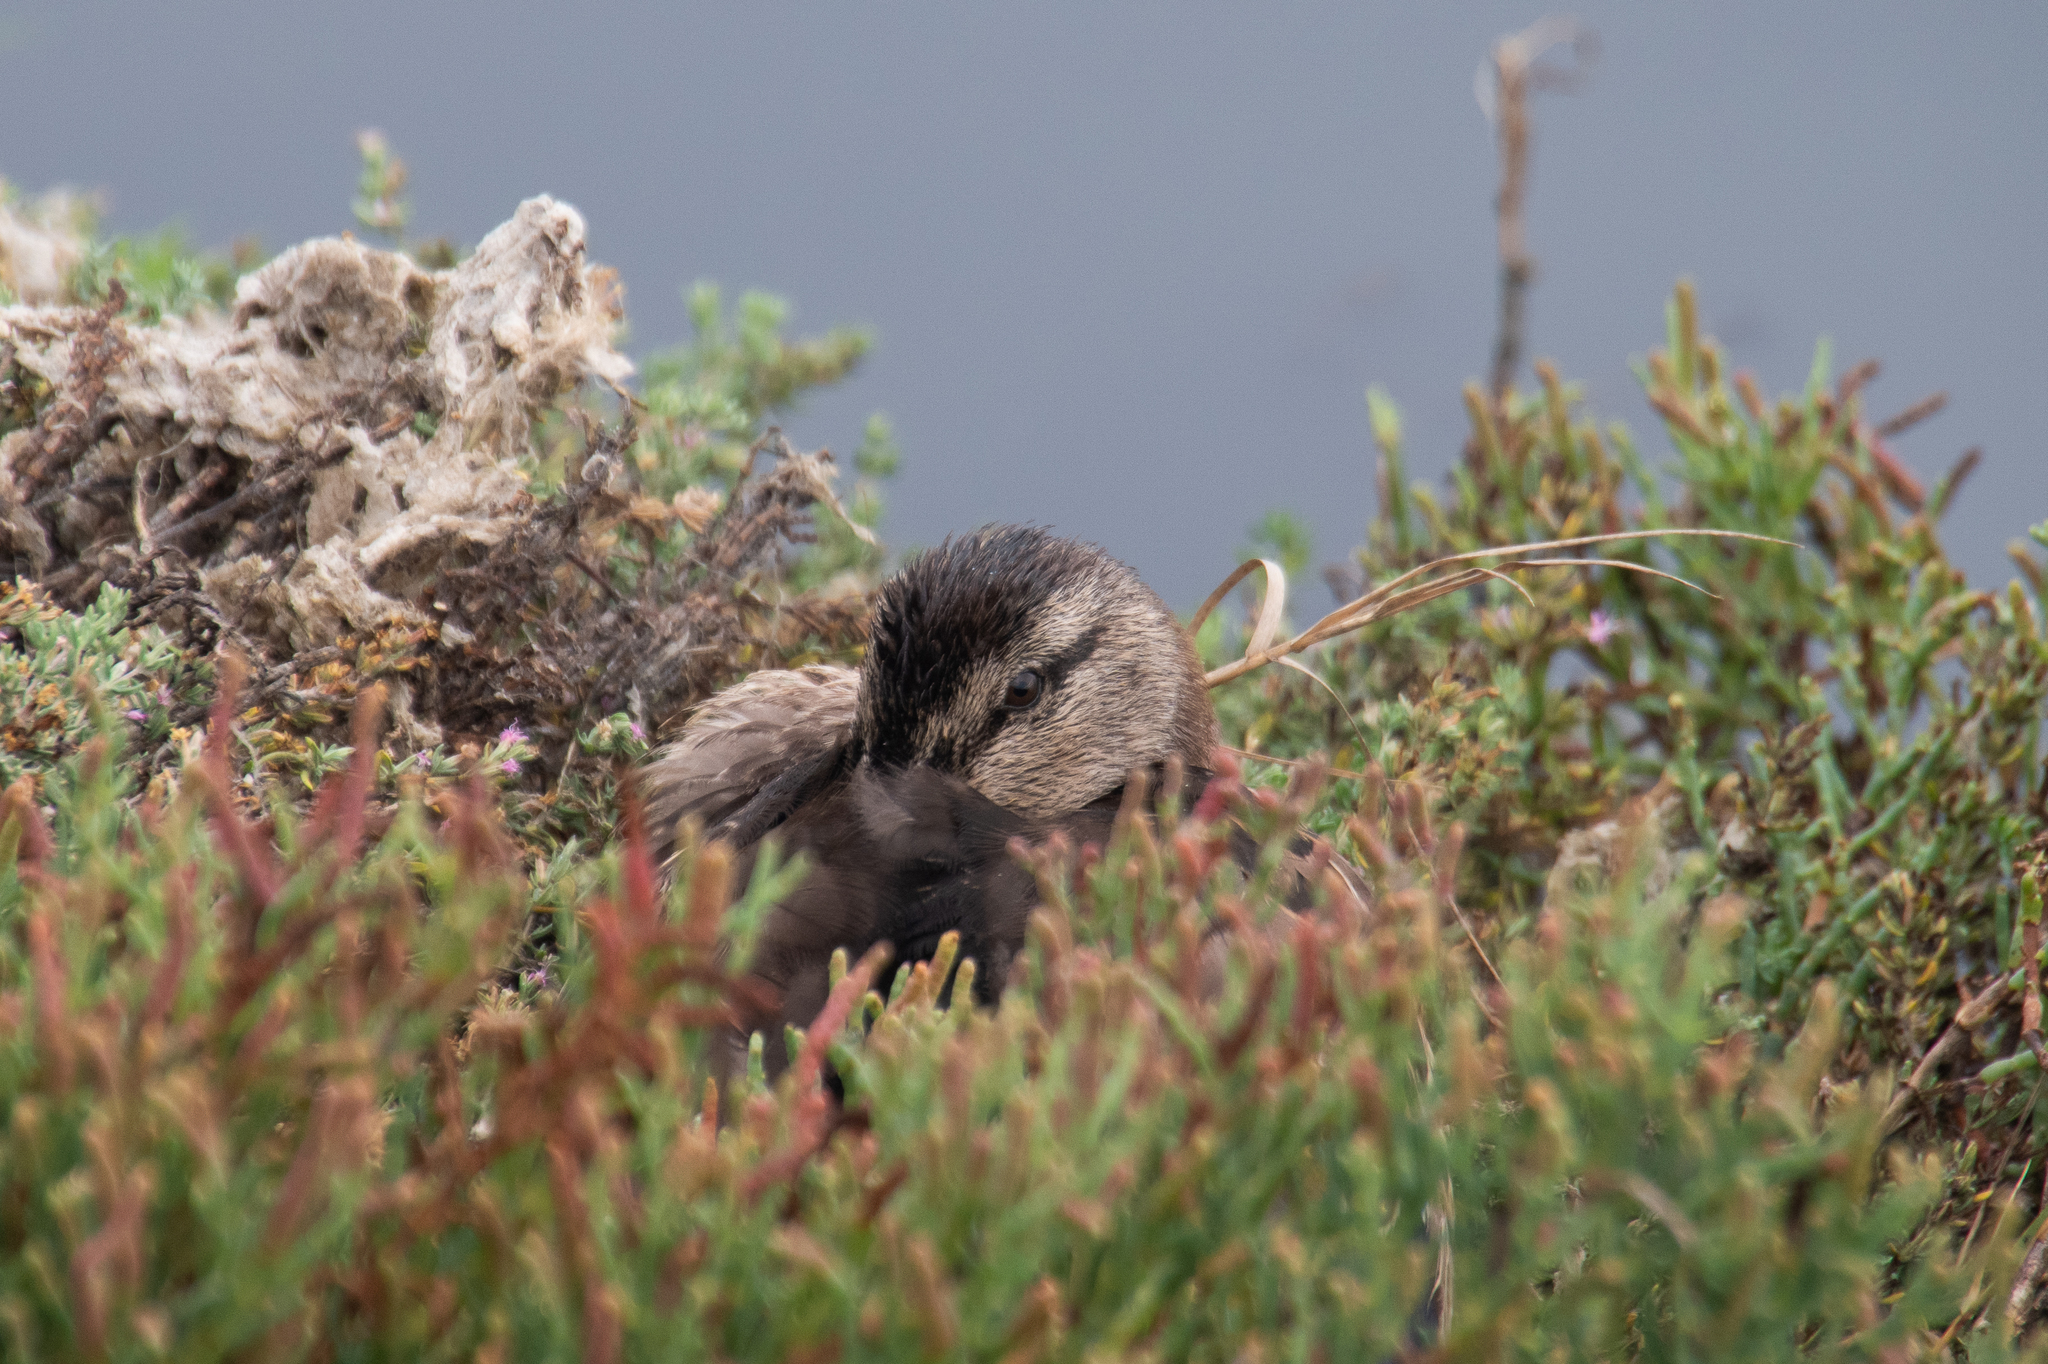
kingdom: Animalia
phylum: Chordata
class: Aves
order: Anseriformes
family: Anatidae
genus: Anas
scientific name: Anas platyrhynchos
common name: Mallard
